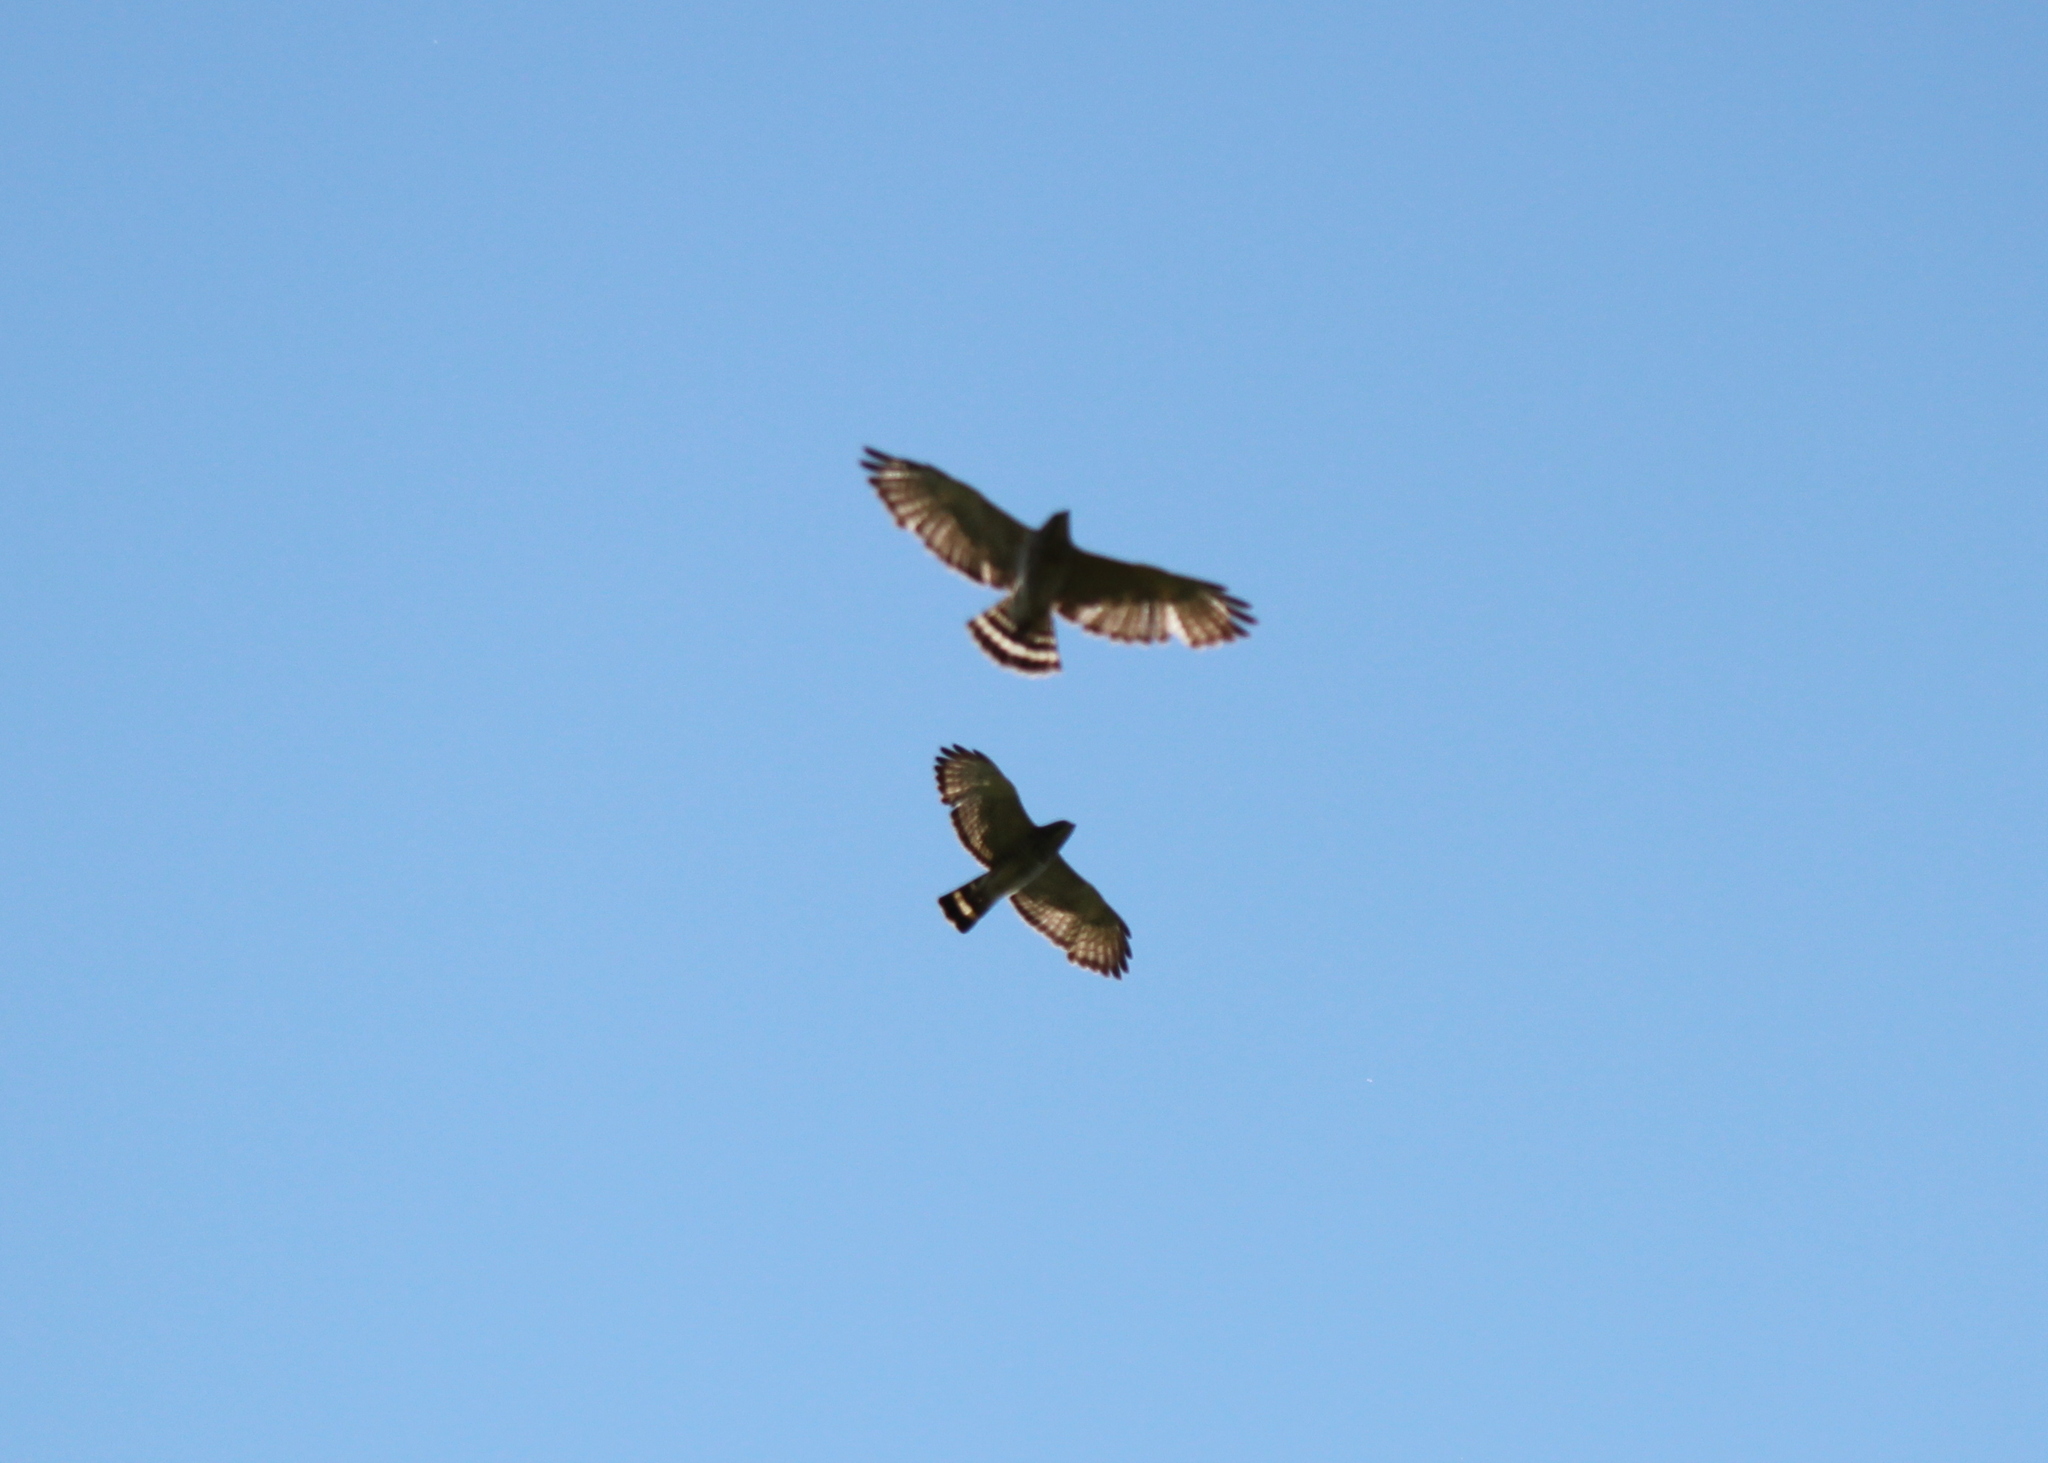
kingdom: Animalia
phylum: Chordata
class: Aves
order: Accipitriformes
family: Accipitridae
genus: Buteo
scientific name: Buteo platypterus
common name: Broad-winged hawk
